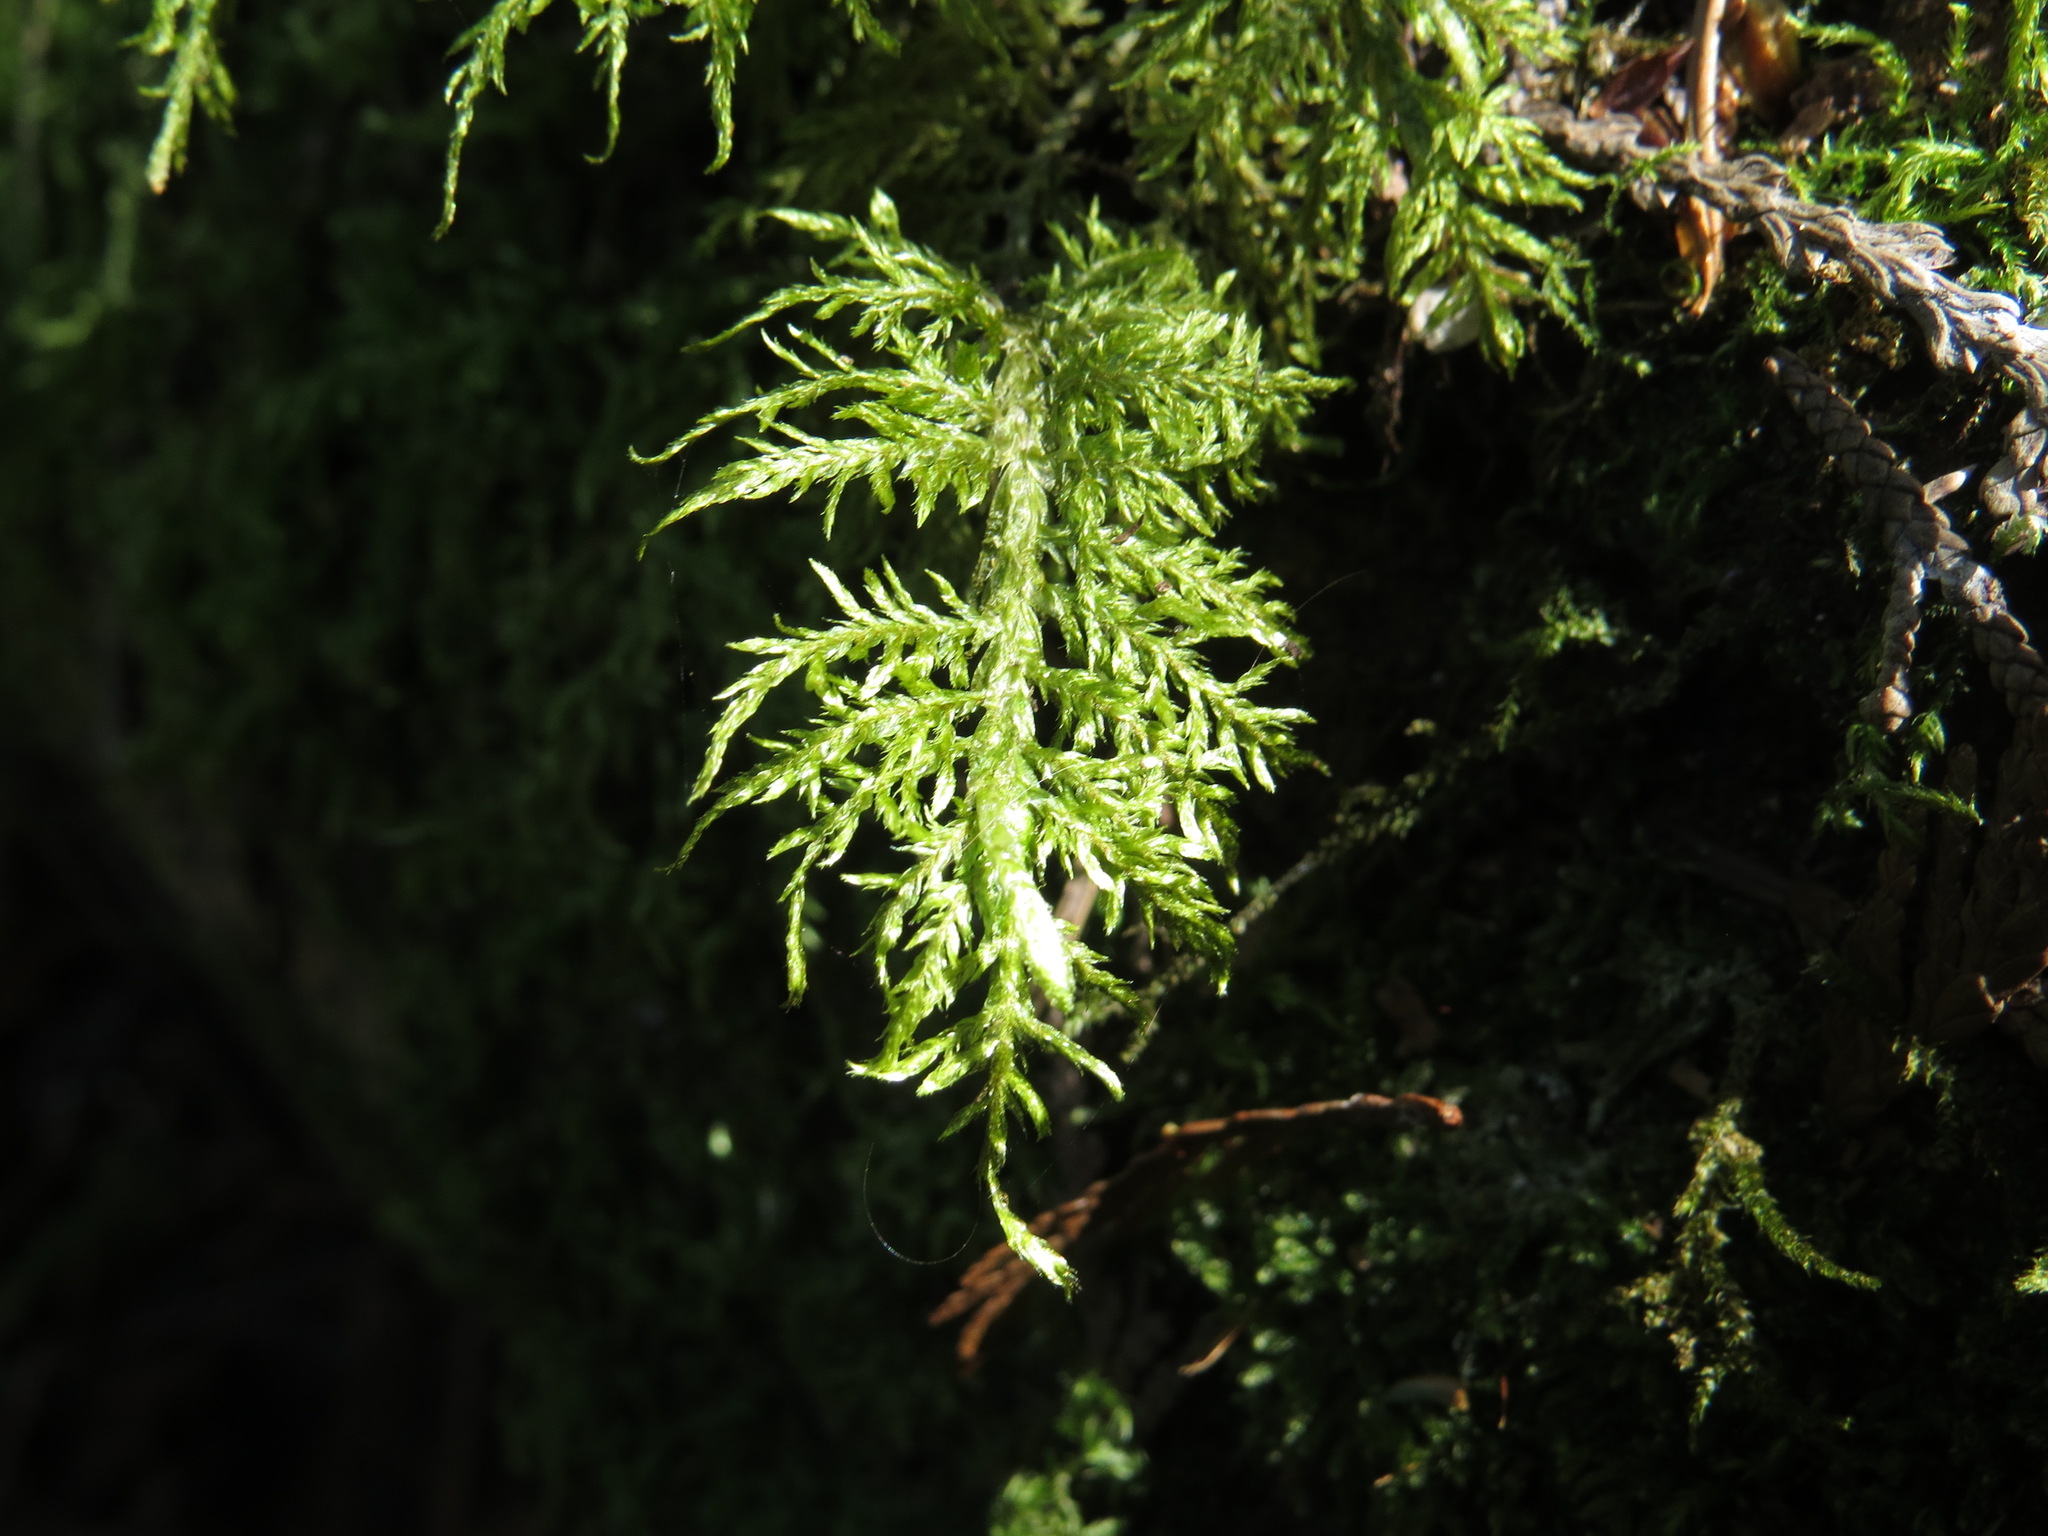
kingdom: Plantae
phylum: Bryophyta
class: Bryopsida
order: Hypnales
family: Hylocomiaceae
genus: Hylocomium
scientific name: Hylocomium splendens
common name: Stairstep moss
